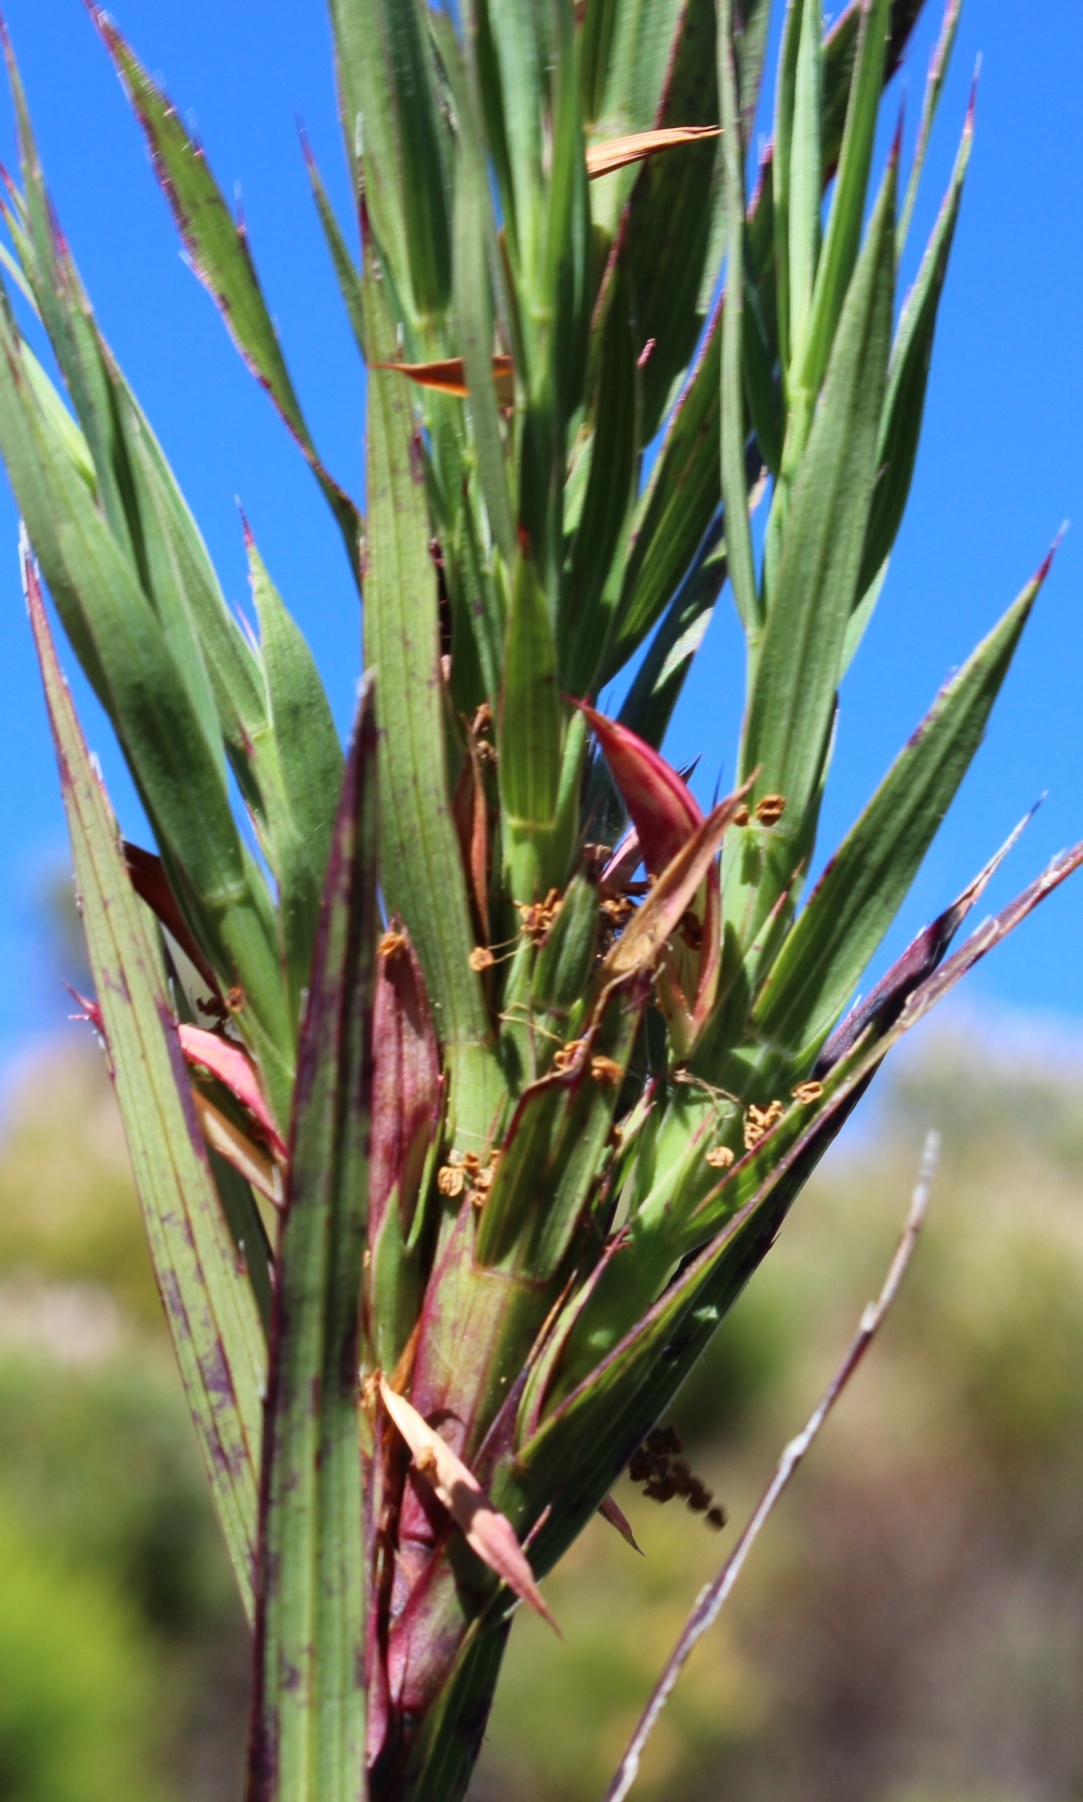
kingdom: Plantae
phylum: Tracheophyta
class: Magnoliopsida
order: Rosales
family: Rosaceae
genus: Cliffortia
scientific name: Cliffortia graminea
